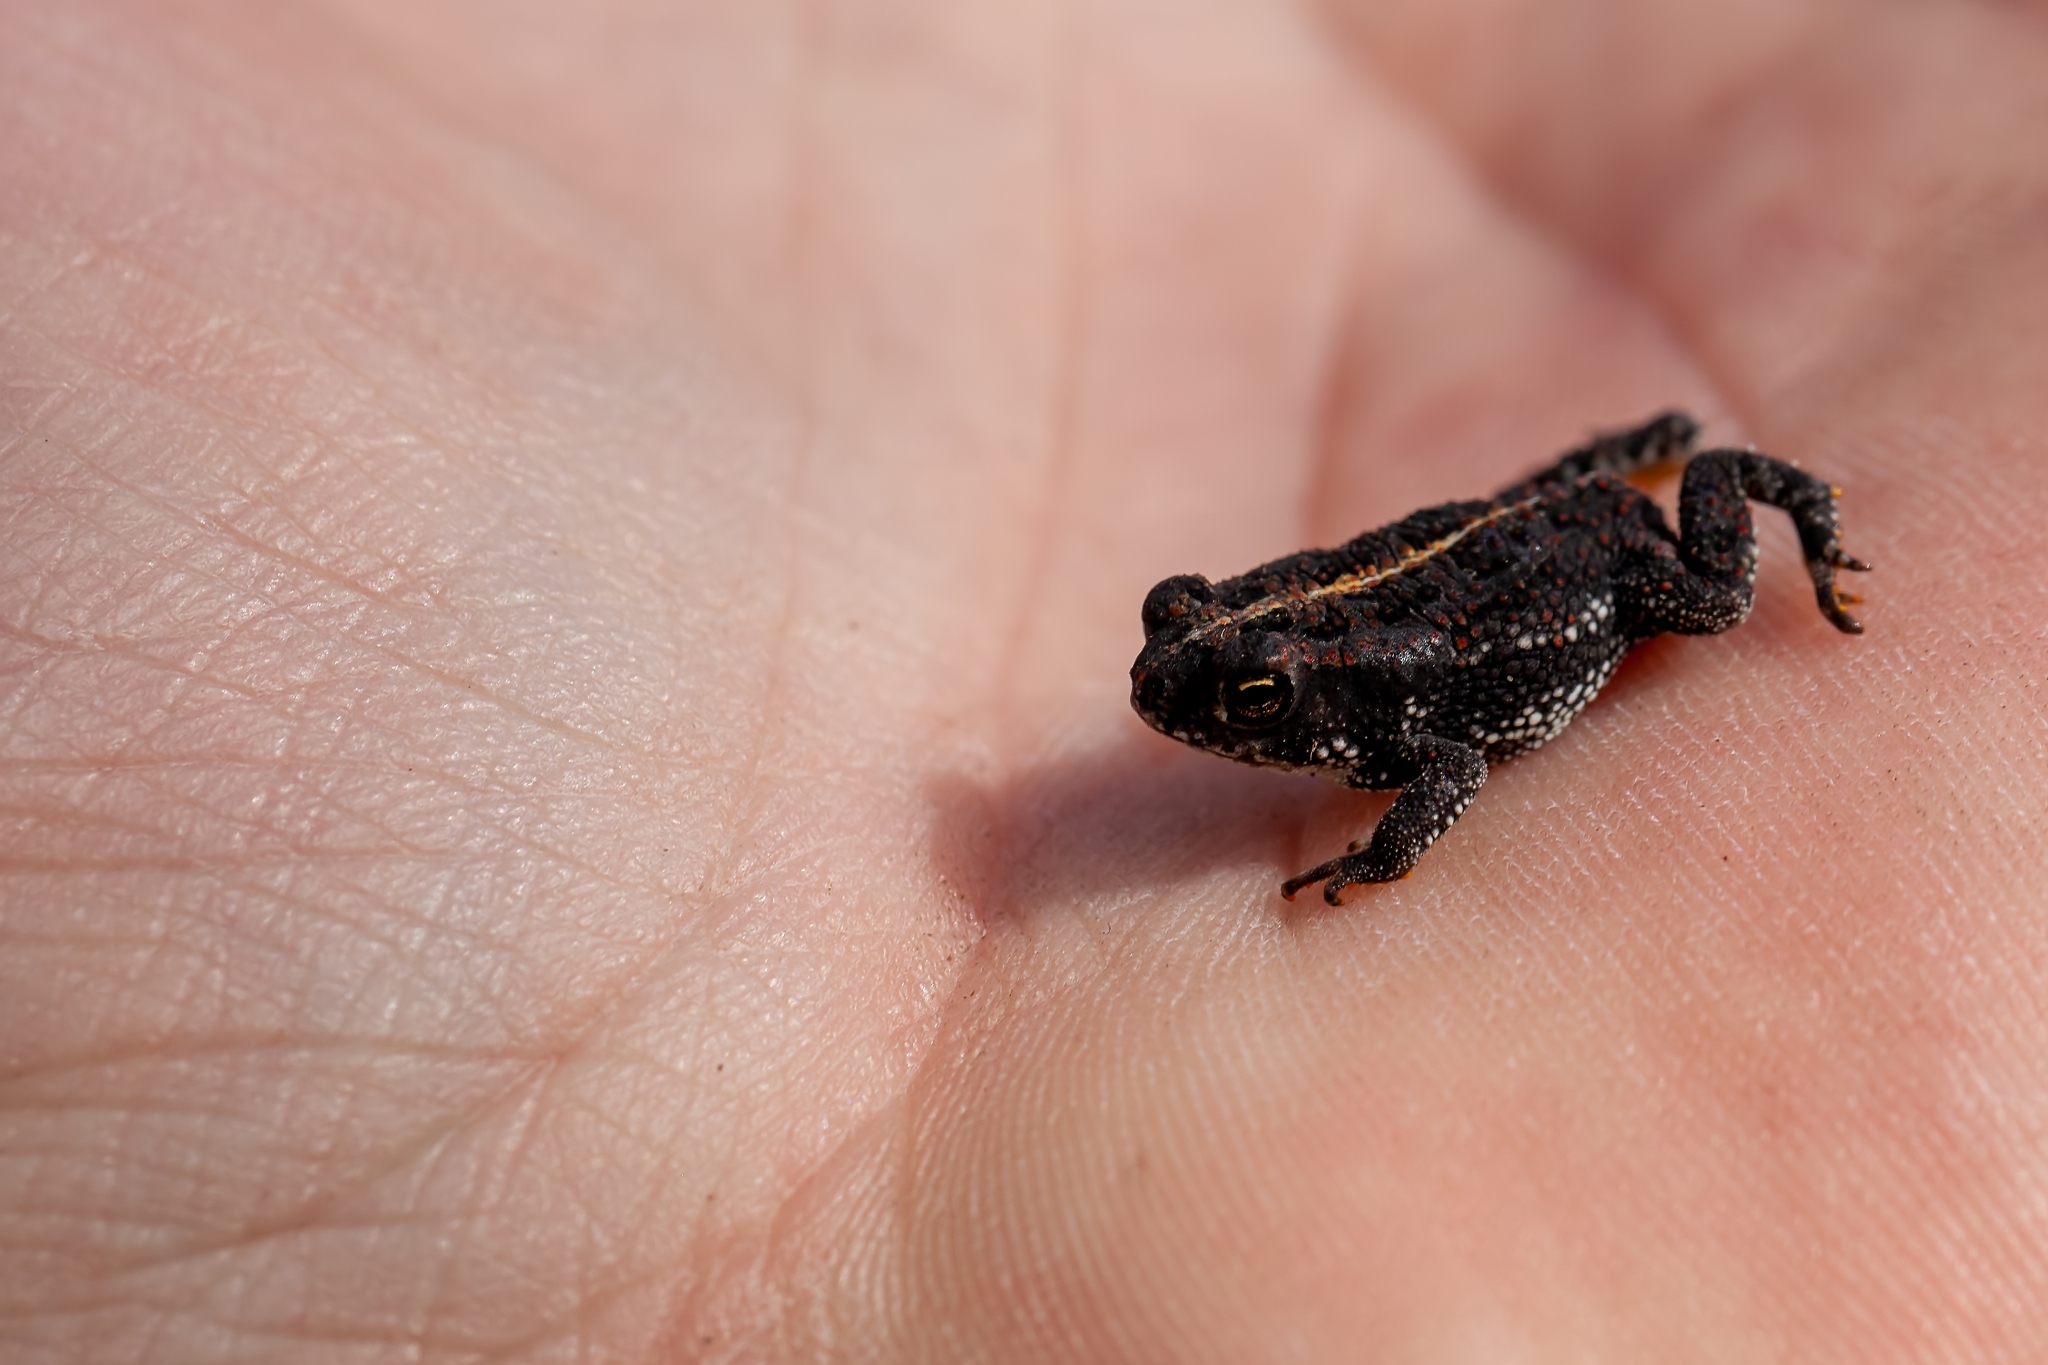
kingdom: Animalia
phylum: Chordata
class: Amphibia
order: Anura
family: Bufonidae
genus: Anaxyrus
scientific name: Anaxyrus quercicus
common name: Oak toad
